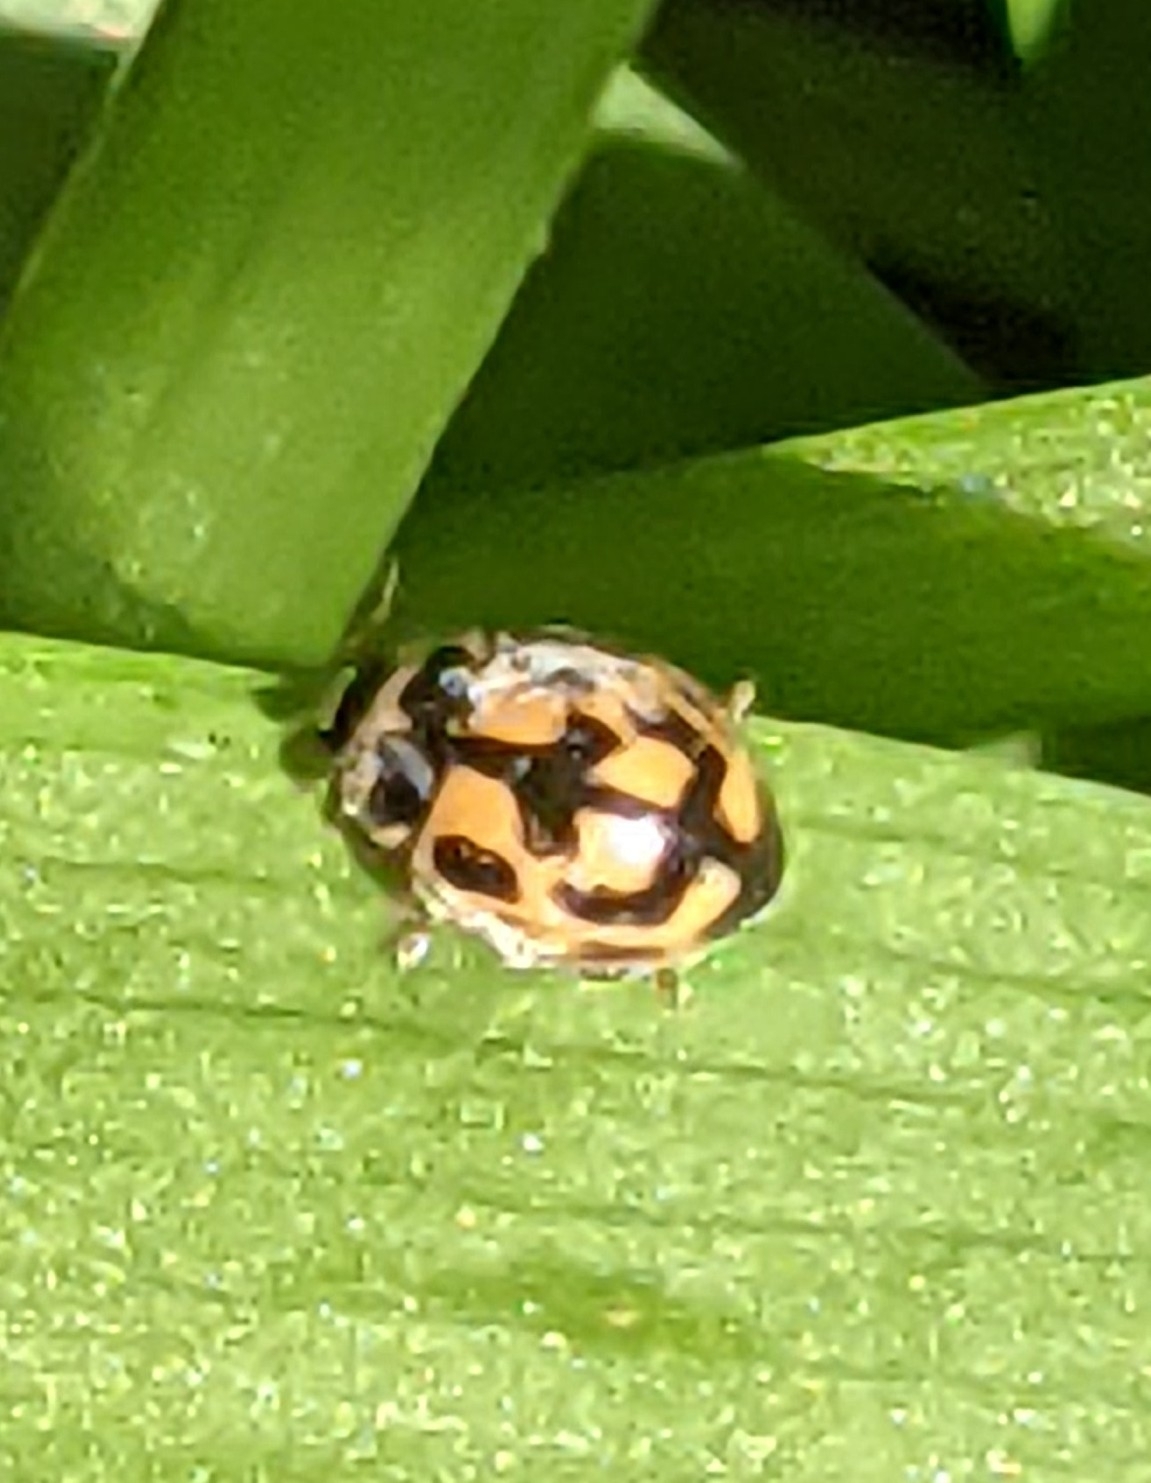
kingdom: Animalia
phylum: Arthropoda
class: Insecta
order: Coleoptera
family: Coccinellidae
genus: Propylaea
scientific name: Propylaea quatuordecimpunctata
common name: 14-spotted ladybird beetle
